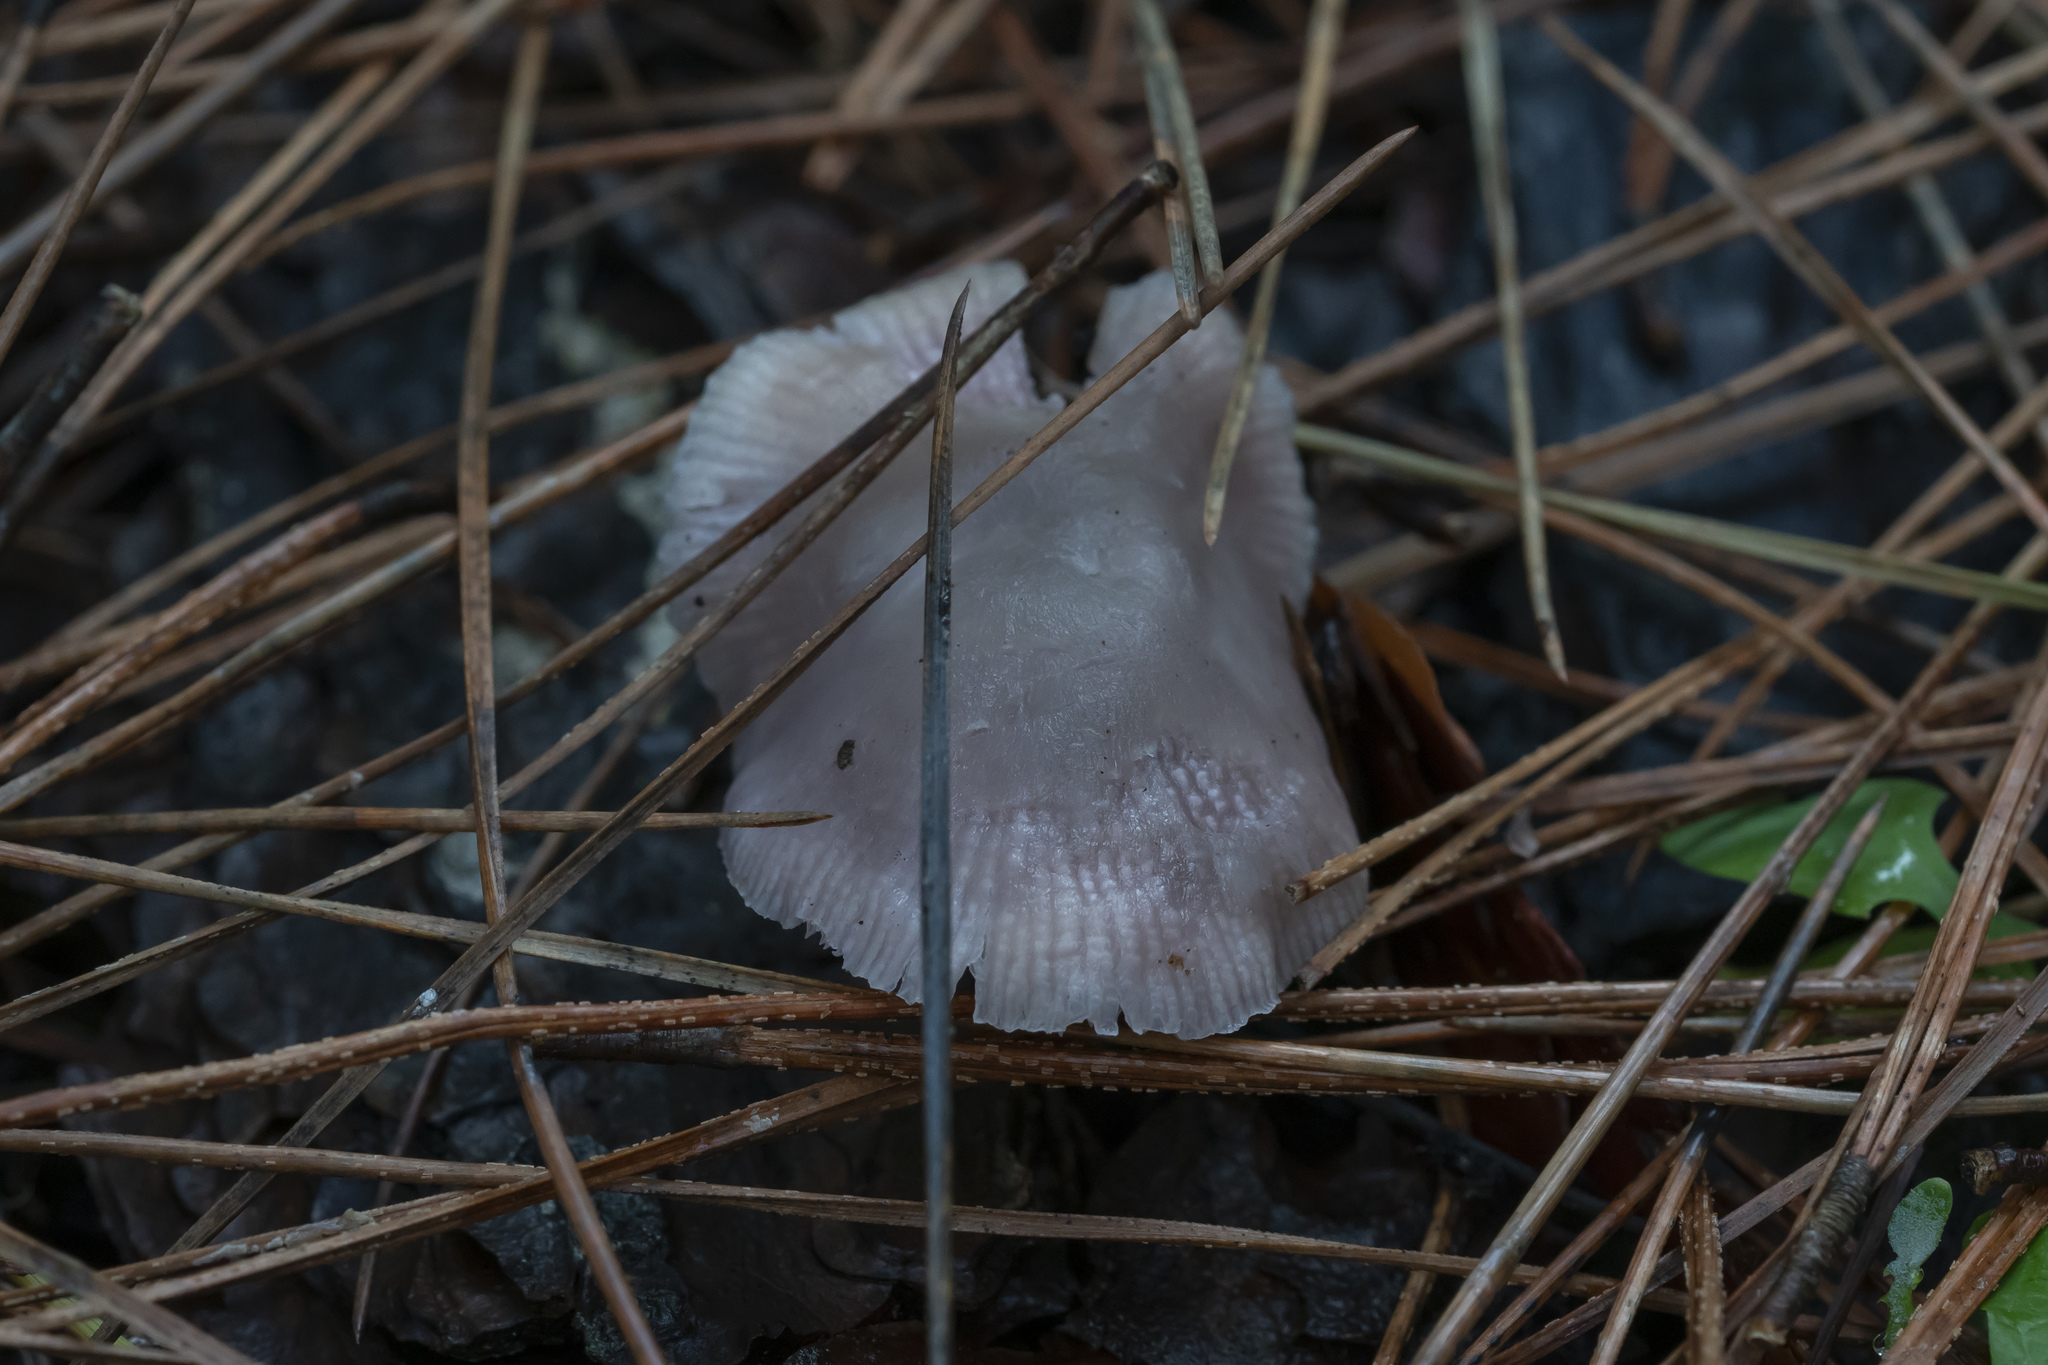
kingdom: Fungi
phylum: Basidiomycota
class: Agaricomycetes
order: Agaricales
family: Mycenaceae
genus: Mycena
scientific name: Mycena pura
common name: Lilac bonnet
